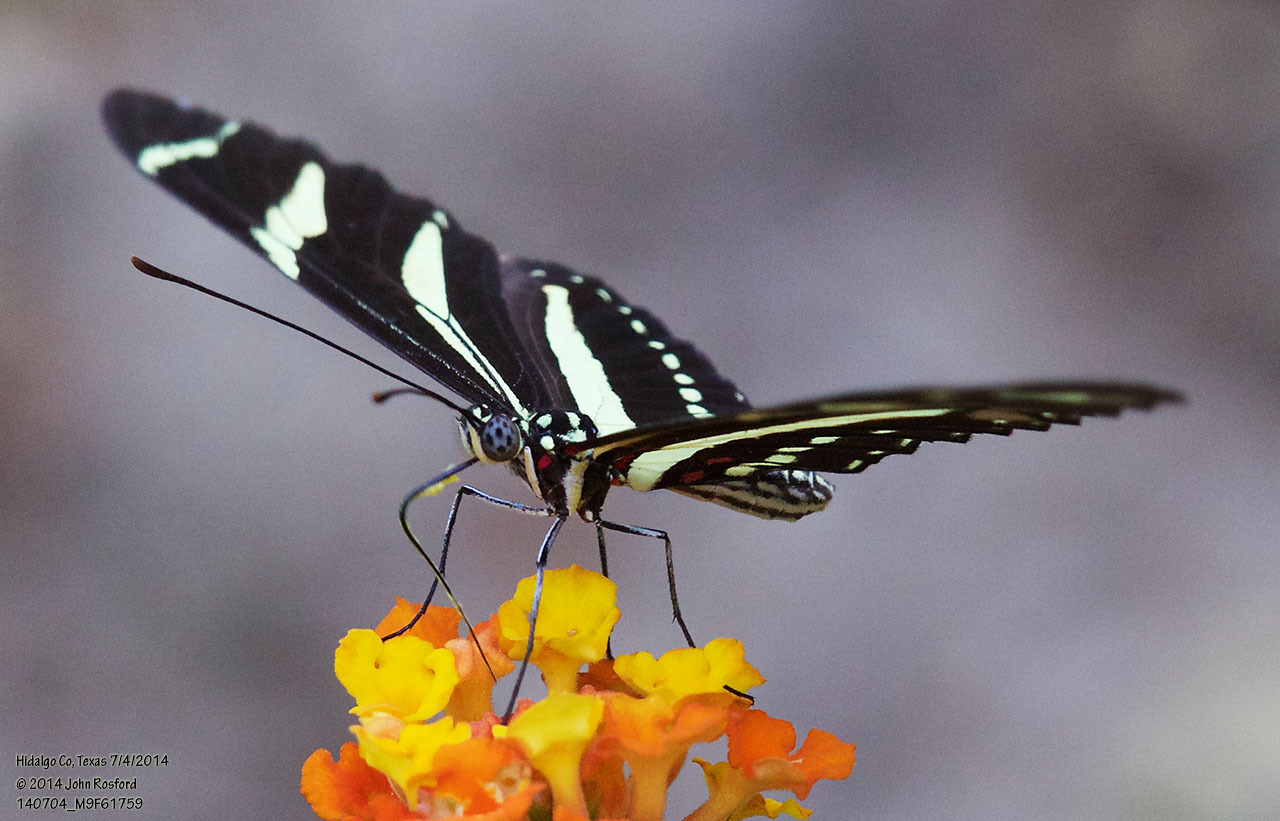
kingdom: Animalia
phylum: Arthropoda
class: Insecta
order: Lepidoptera
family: Nymphalidae
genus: Heliconius
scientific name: Heliconius charithonia
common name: Zebra long wing
